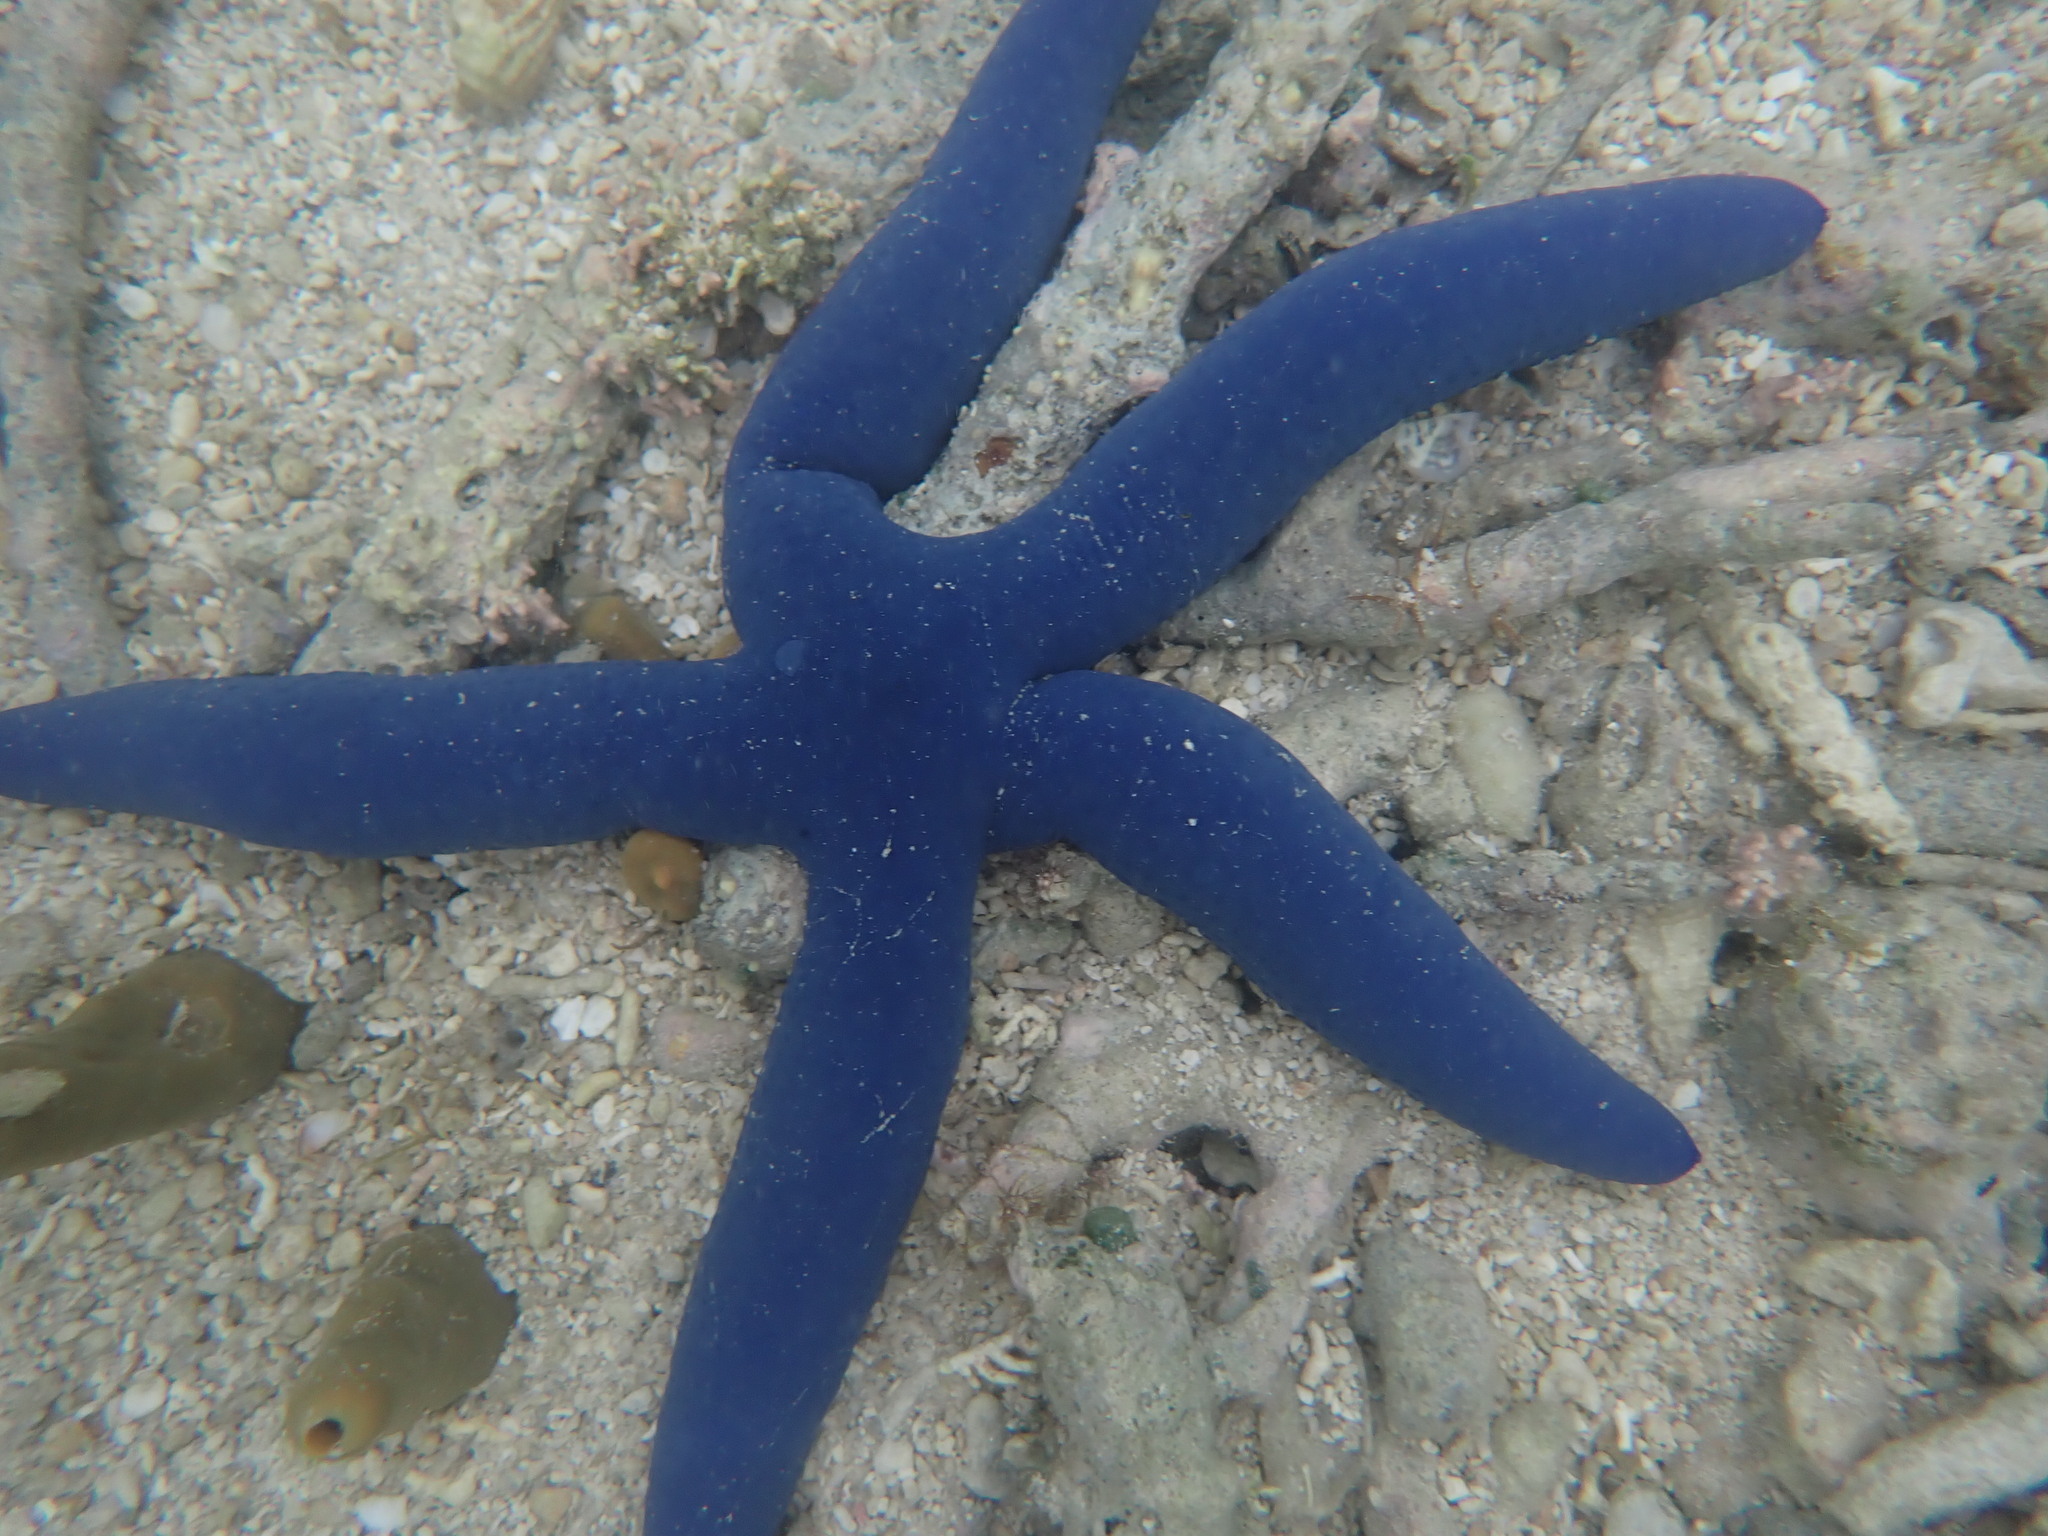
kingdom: Animalia
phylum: Echinodermata
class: Asteroidea
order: Valvatida
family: Ophidiasteridae
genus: Linckia
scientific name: Linckia laevigata
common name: Azure sea star
